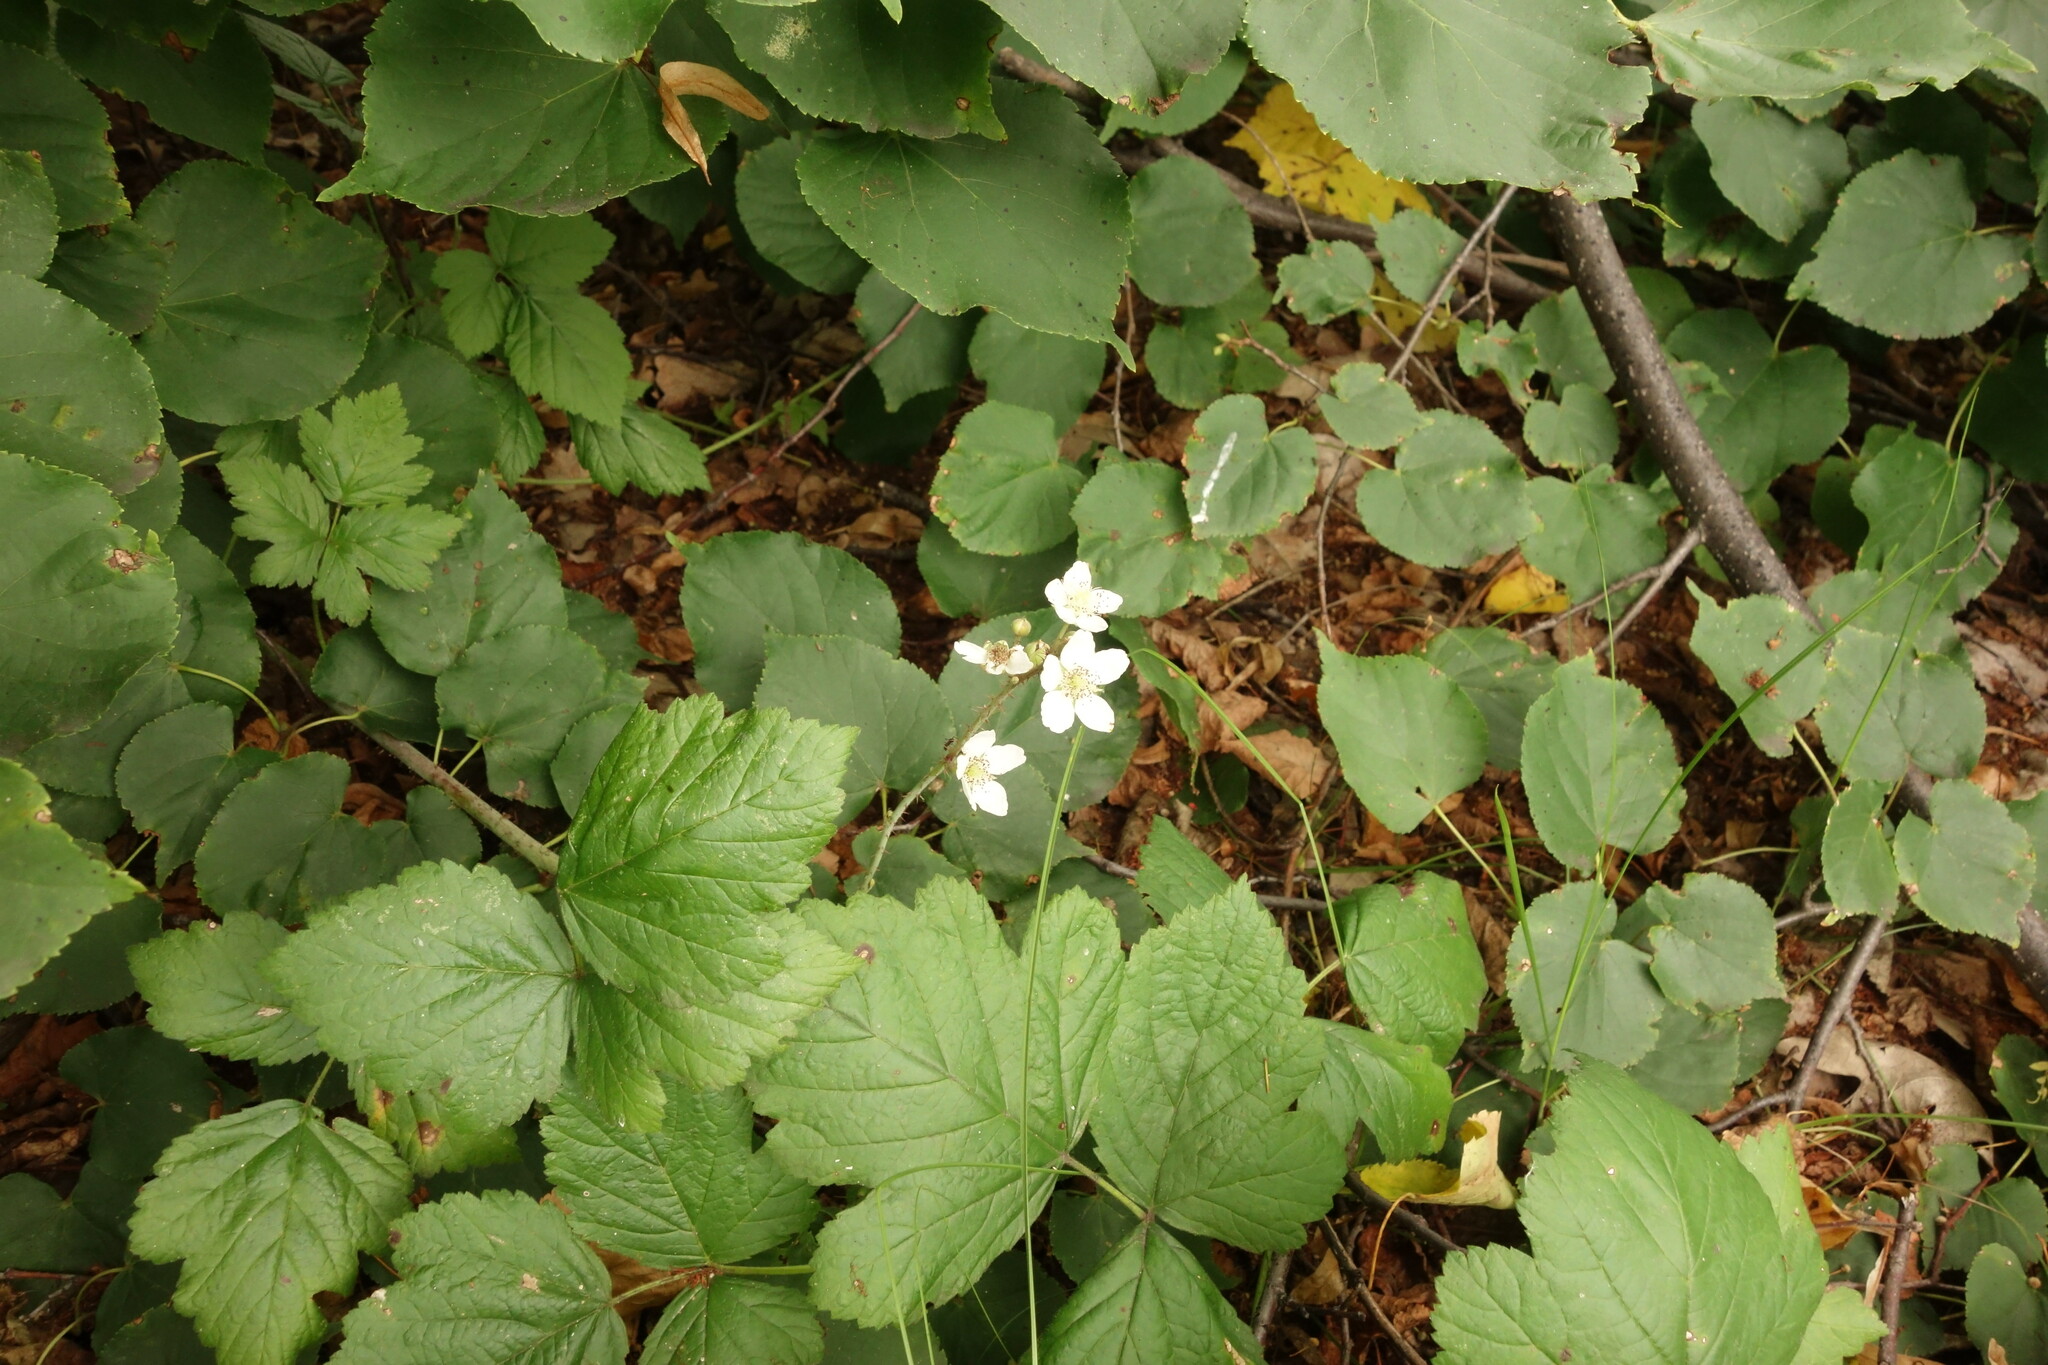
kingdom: Plantae
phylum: Tracheophyta
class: Magnoliopsida
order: Rosales
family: Rosaceae
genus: Rubus
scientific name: Rubus caesius
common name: Dewberry
